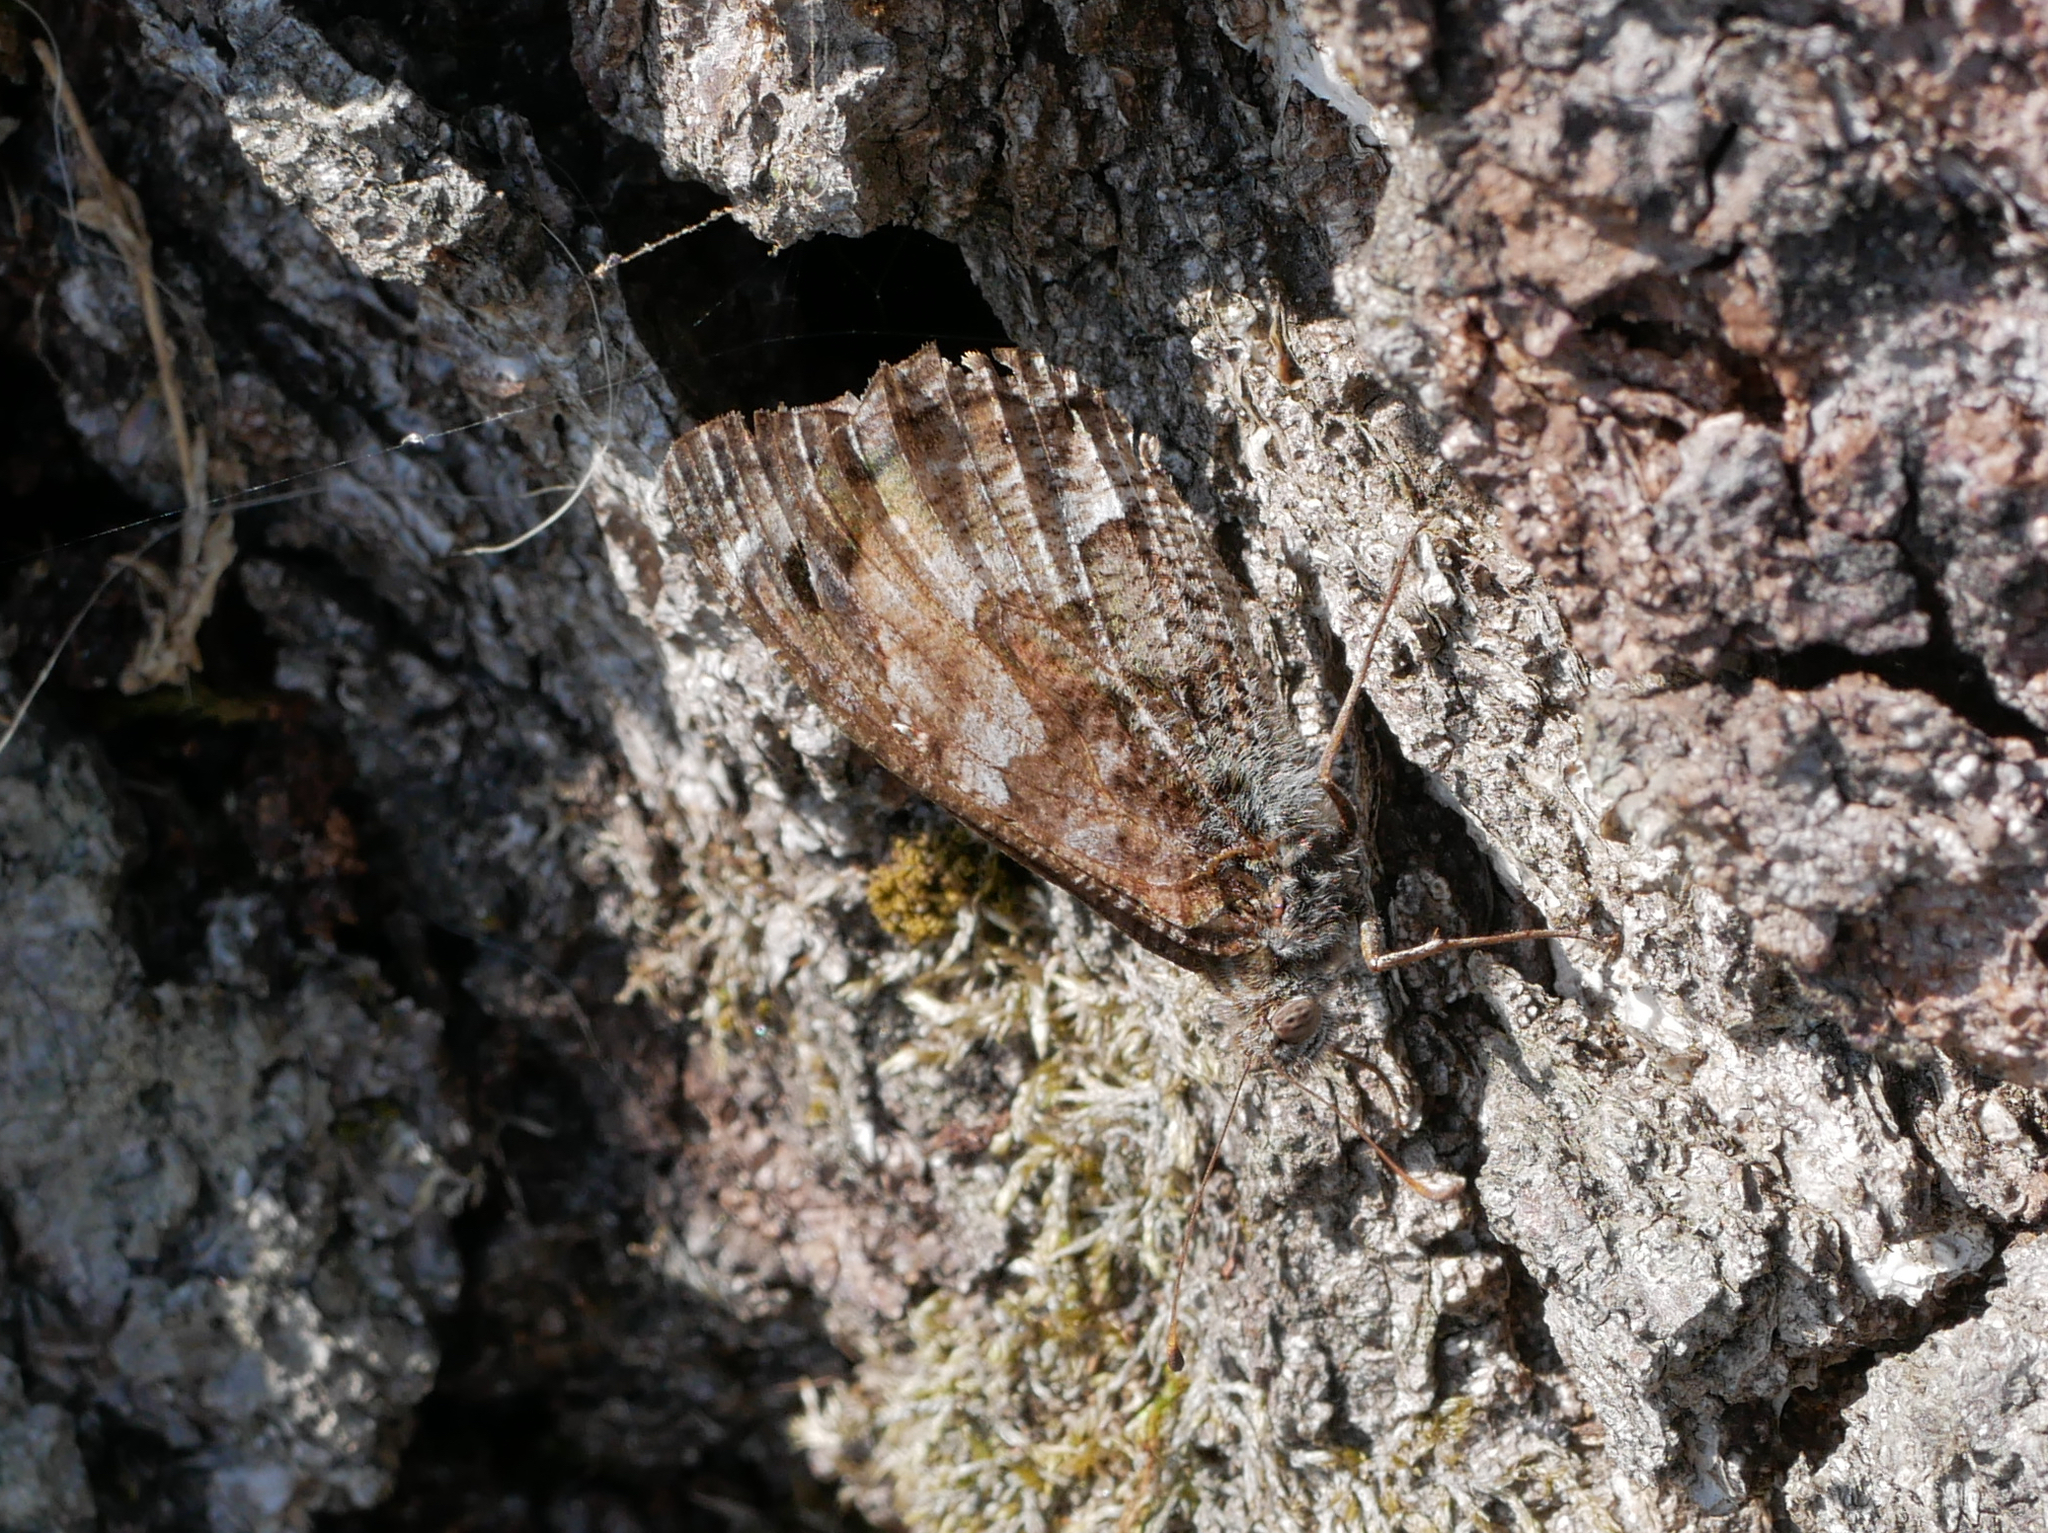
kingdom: Animalia
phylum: Arthropoda
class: Insecta
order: Lepidoptera
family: Nymphalidae
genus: Hipparchia
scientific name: Hipparchia semele
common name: Grayling
